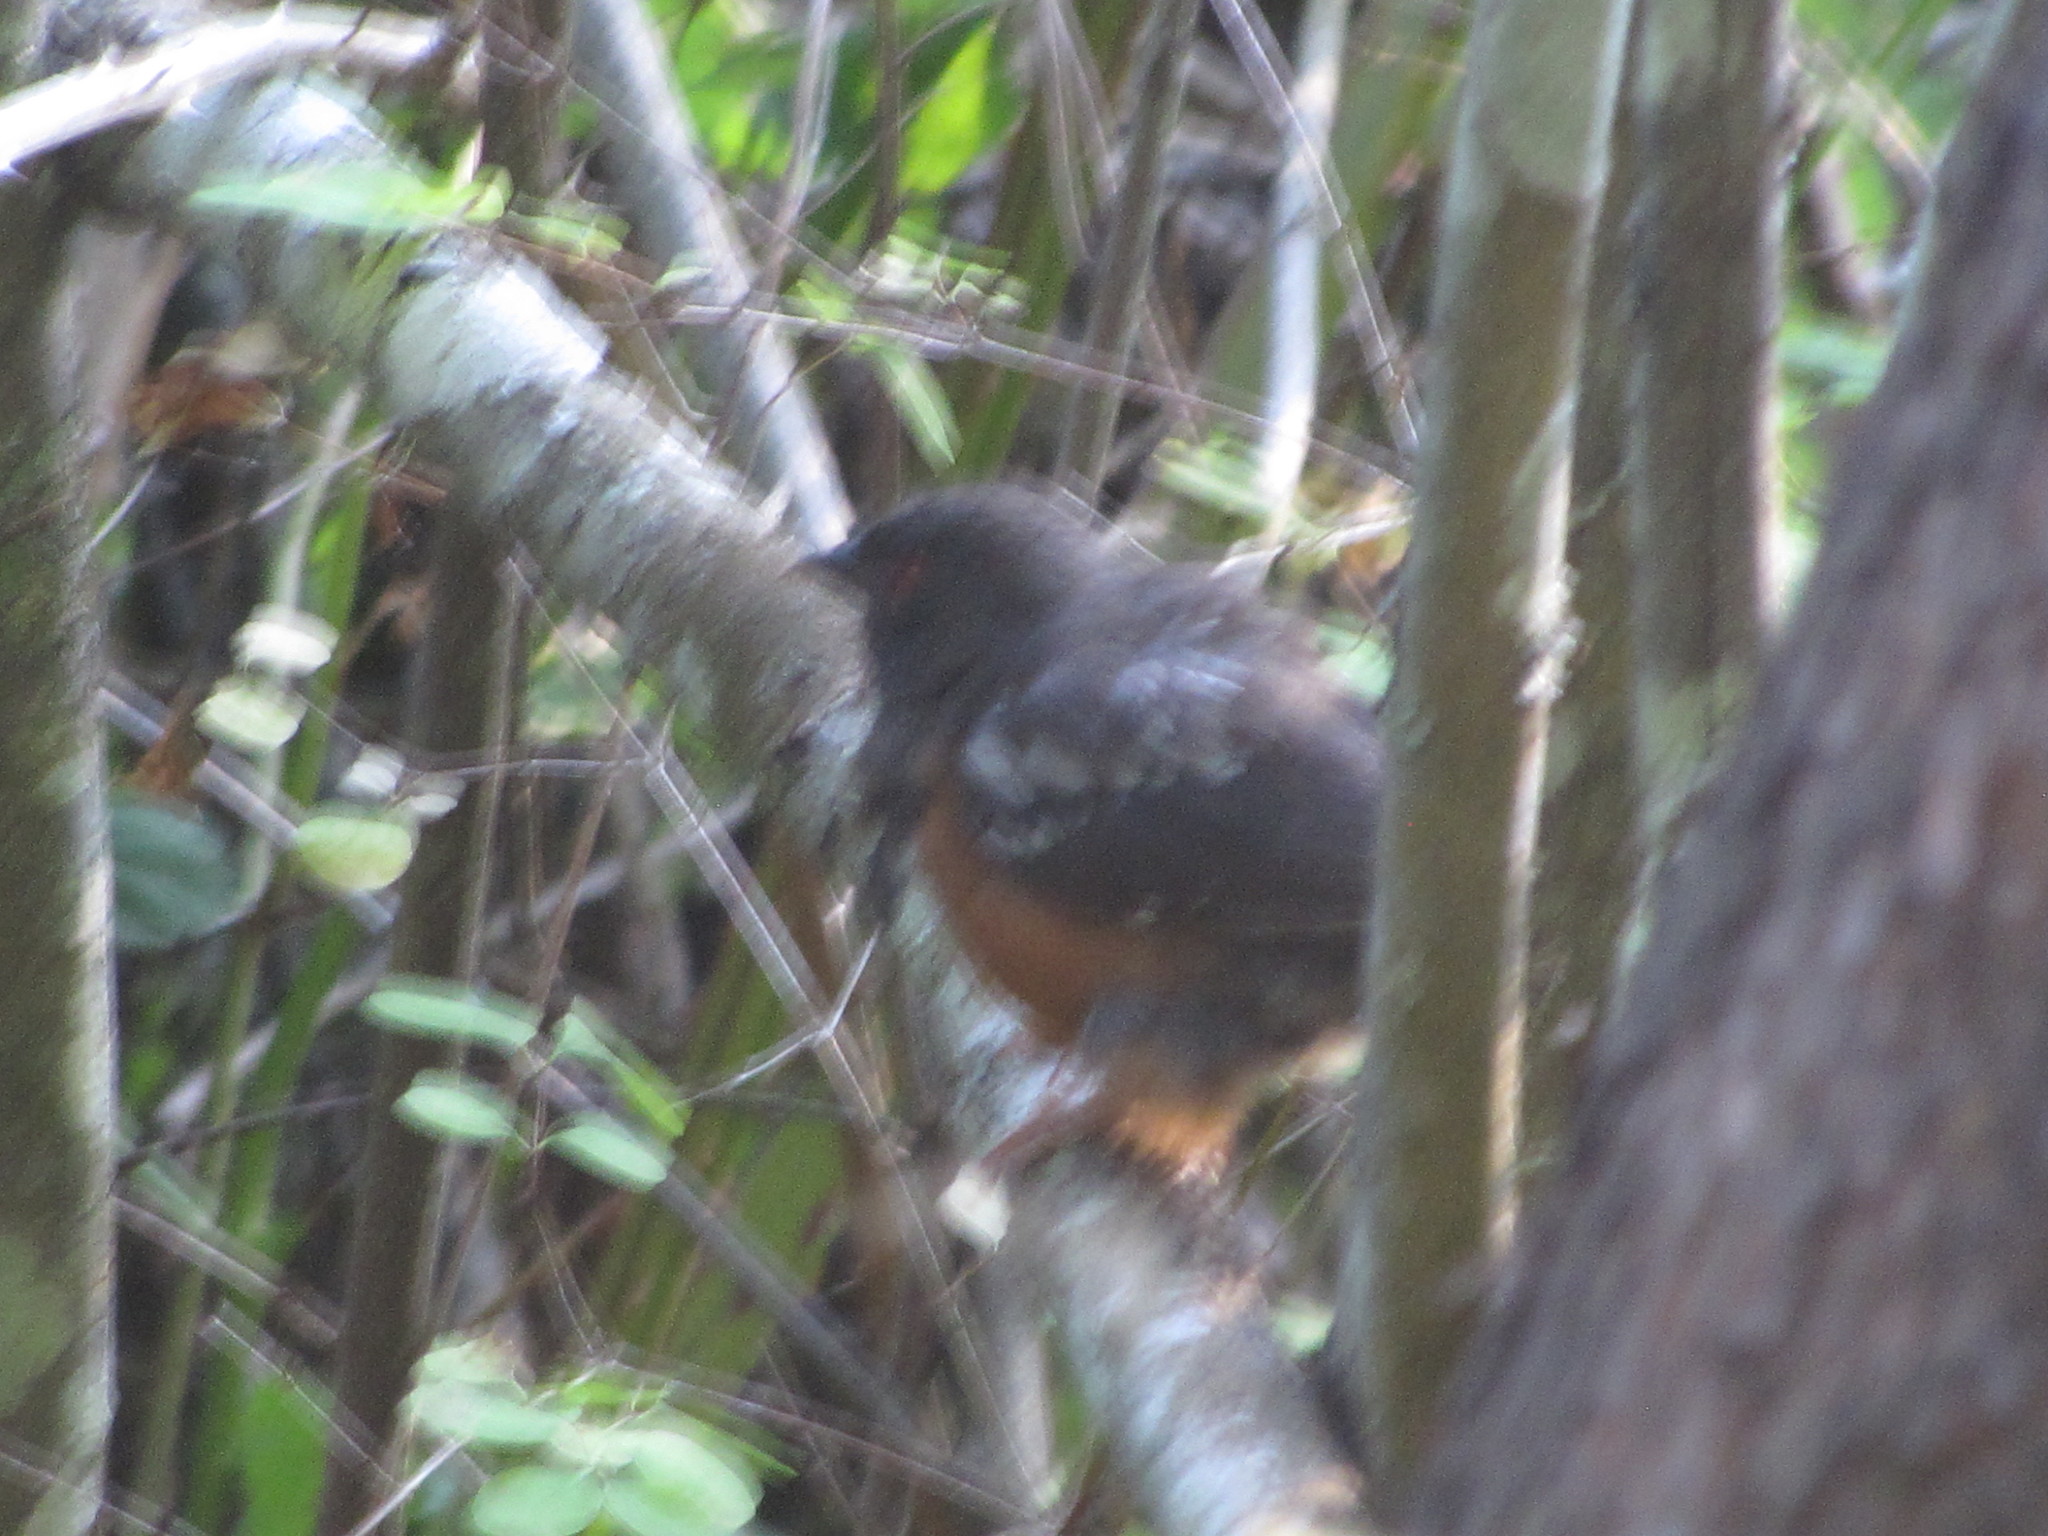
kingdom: Animalia
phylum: Chordata
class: Aves
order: Passeriformes
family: Passerellidae
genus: Pipilo
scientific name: Pipilo maculatus
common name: Spotted towhee
